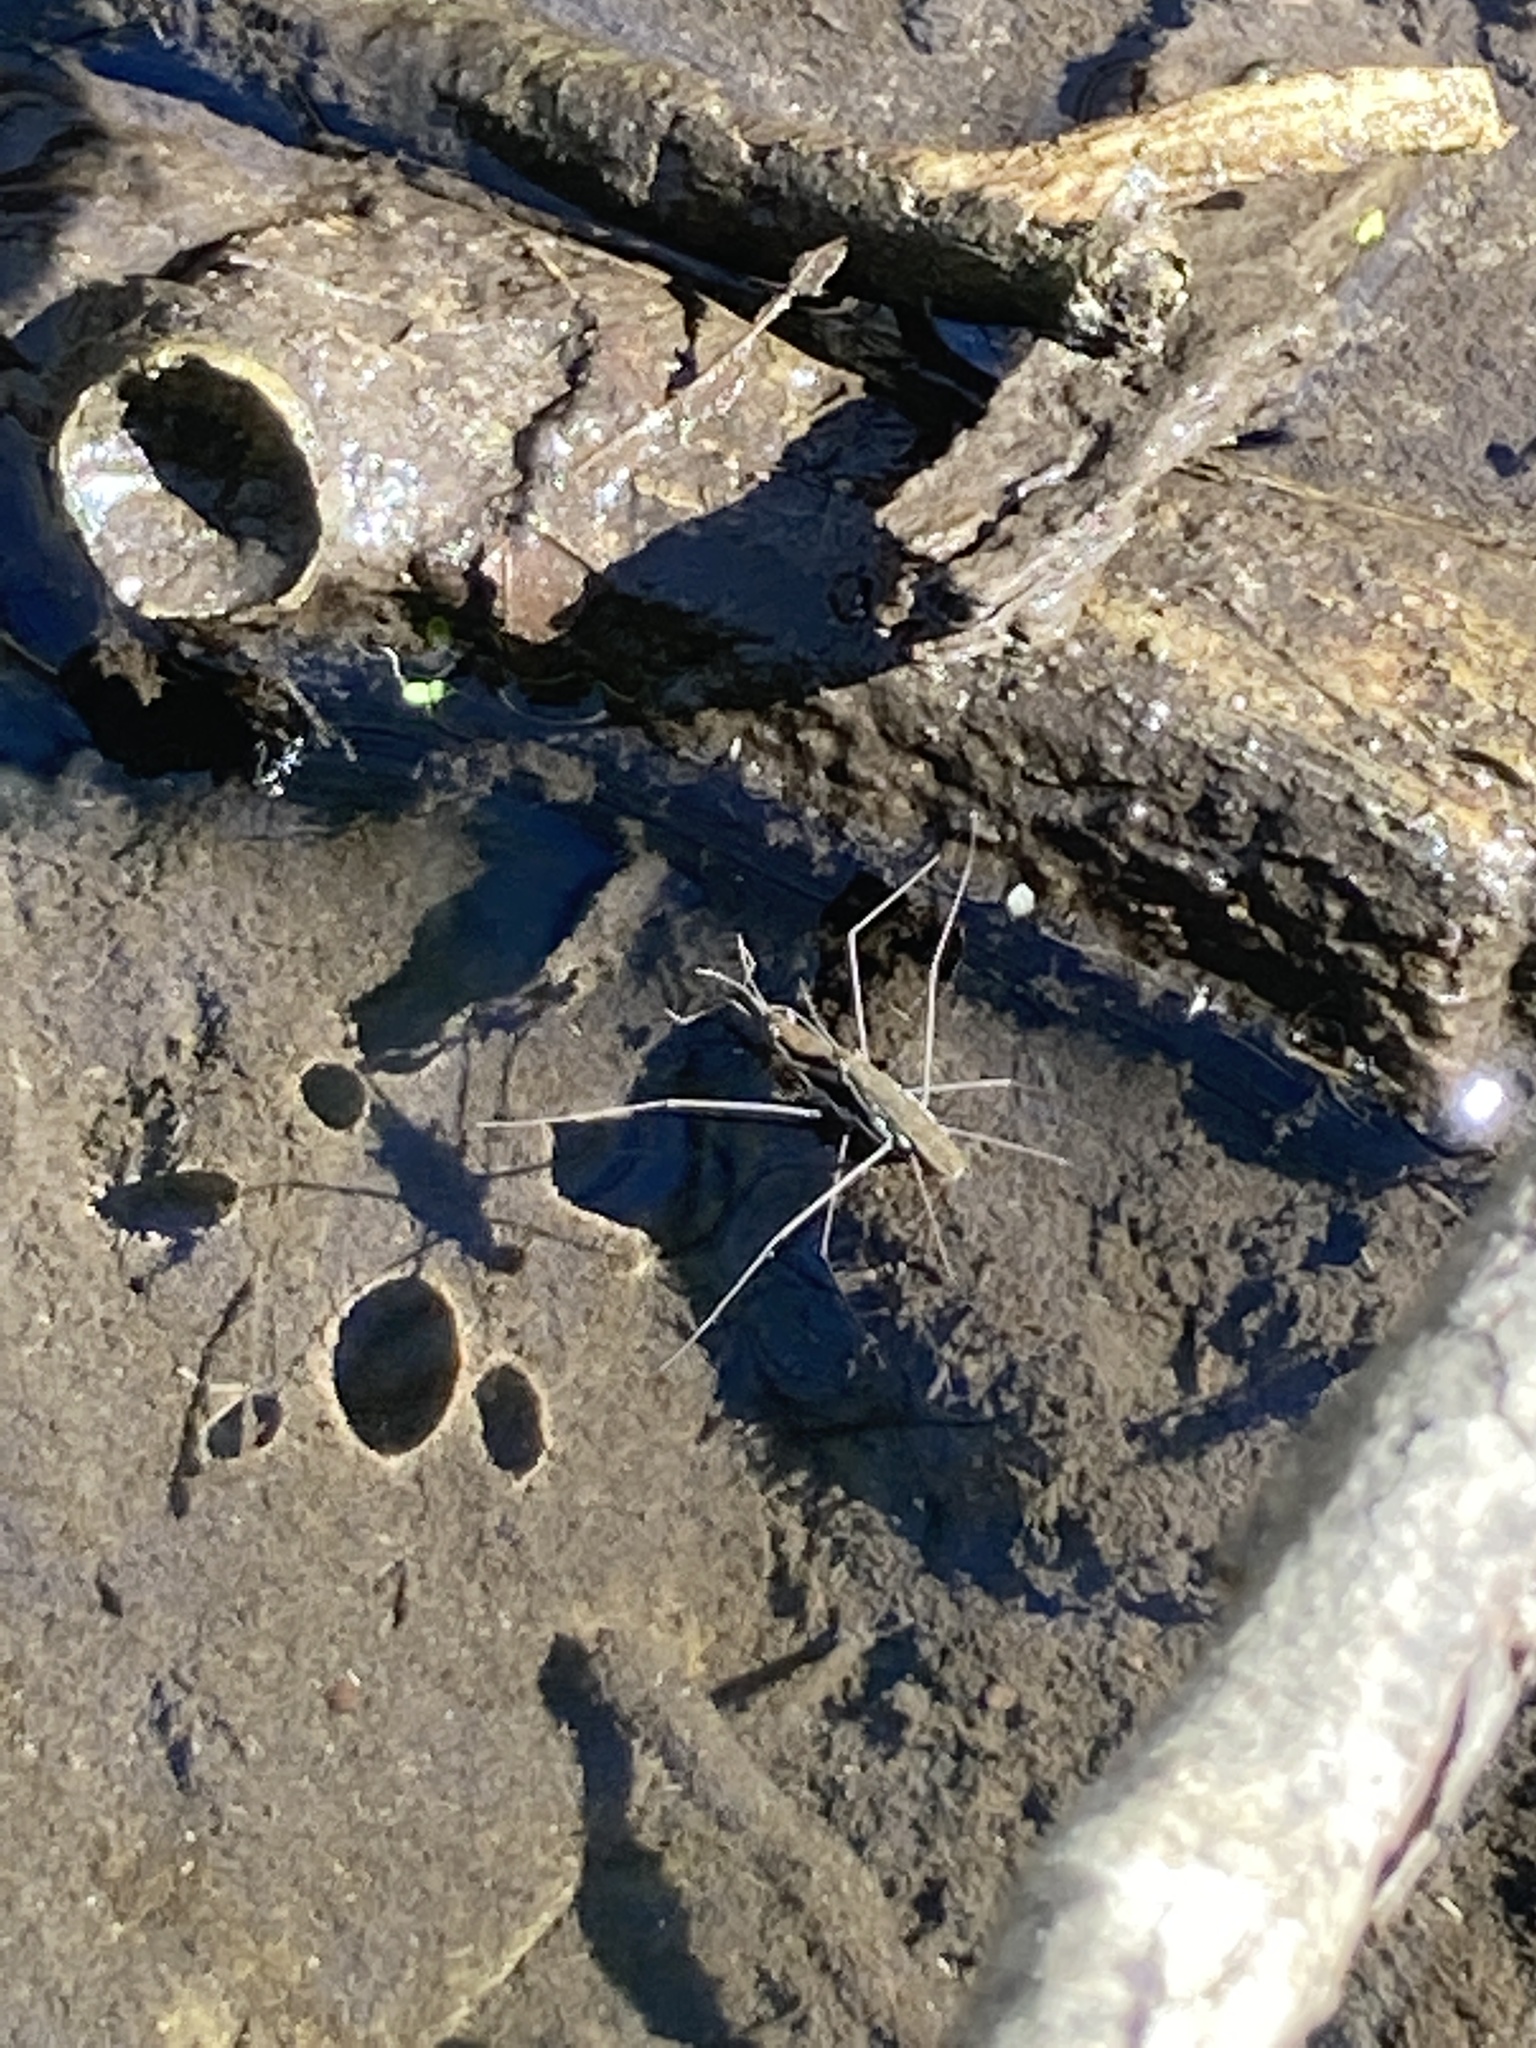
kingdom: Animalia
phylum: Arthropoda
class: Insecta
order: Hemiptera
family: Gerridae
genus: Aquarius
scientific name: Aquarius remigis
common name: Common water strider
